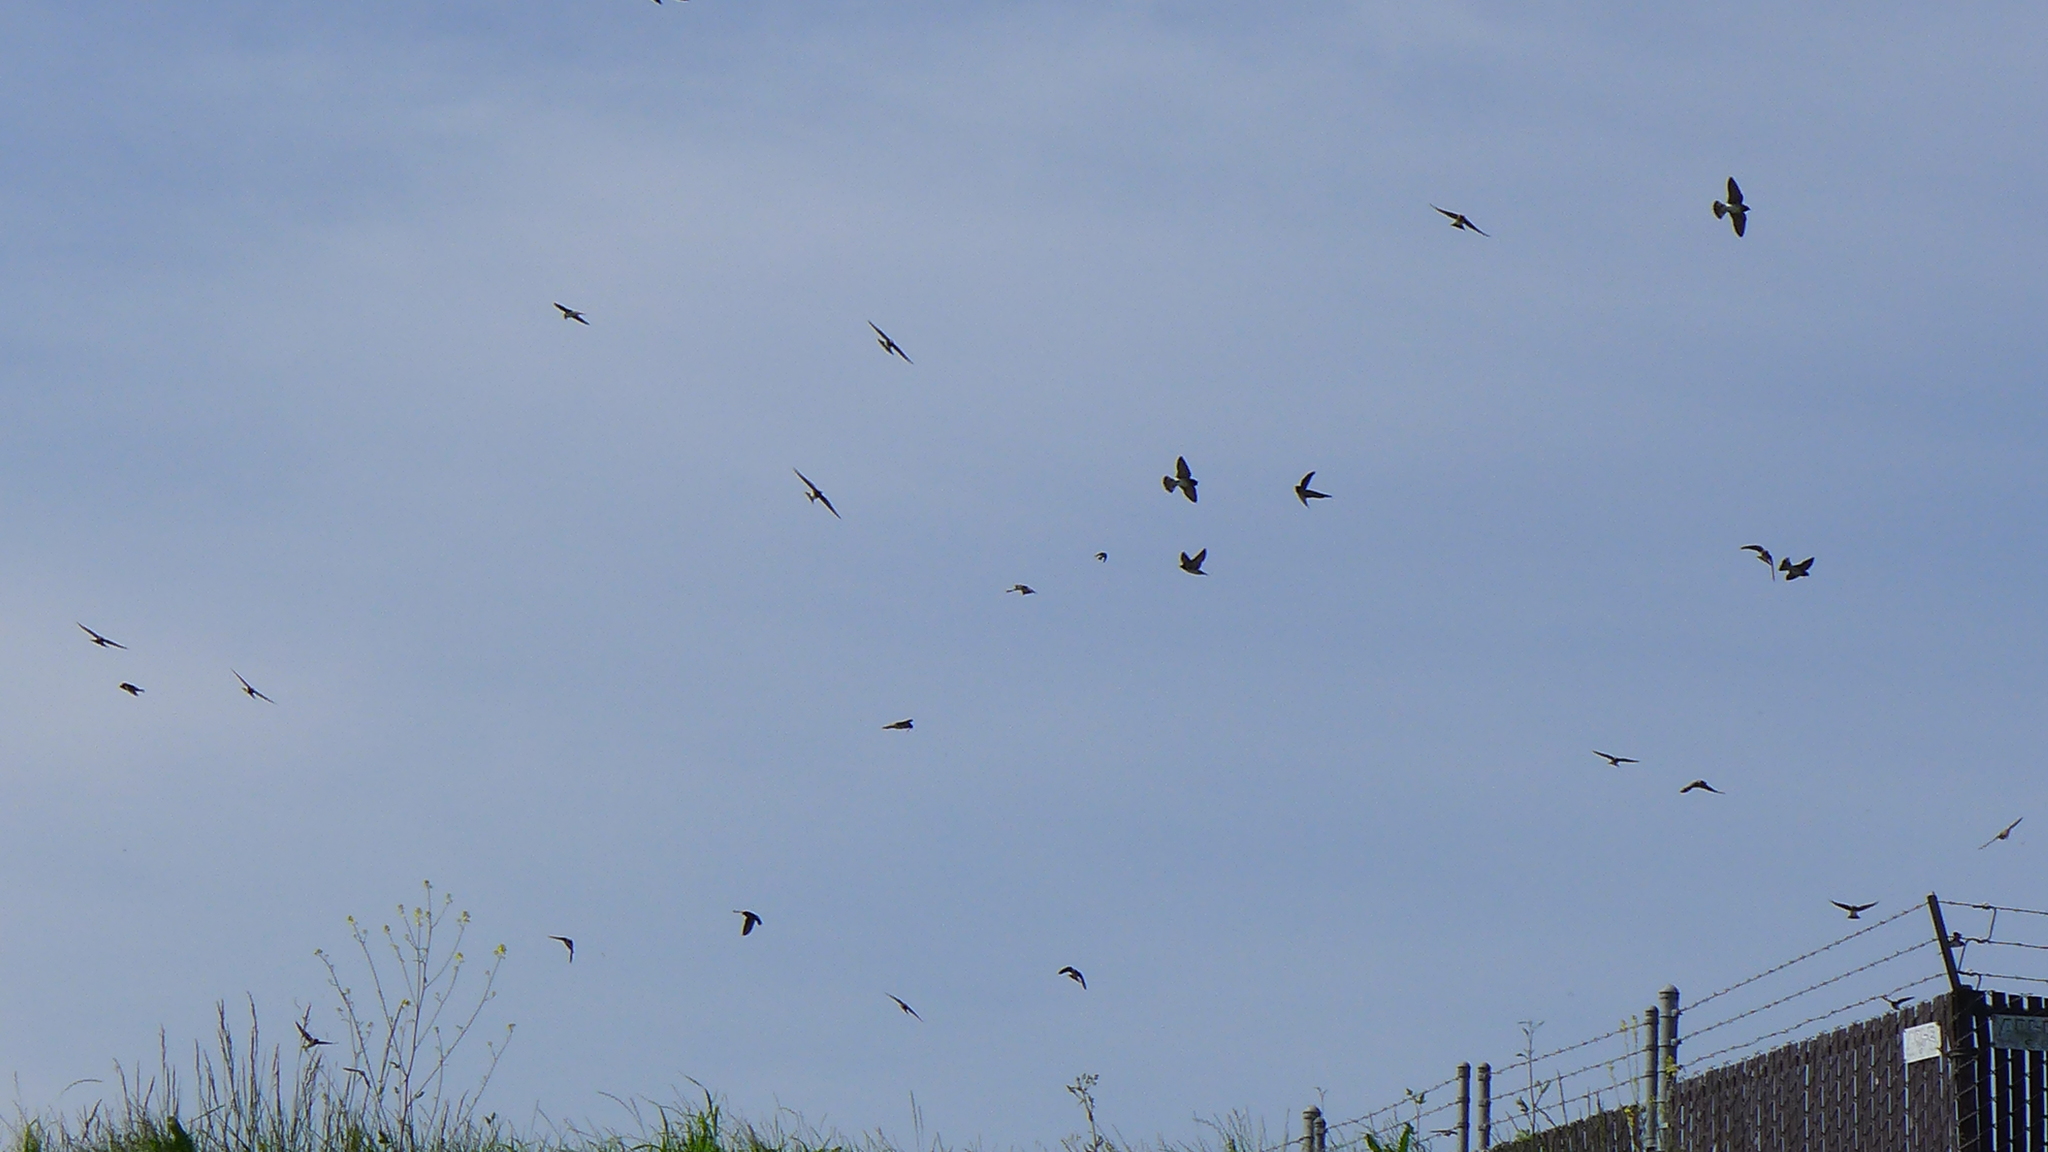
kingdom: Animalia
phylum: Chordata
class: Aves
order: Passeriformes
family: Hirundinidae
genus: Tachycineta
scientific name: Tachycineta bicolor
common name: Tree swallow
